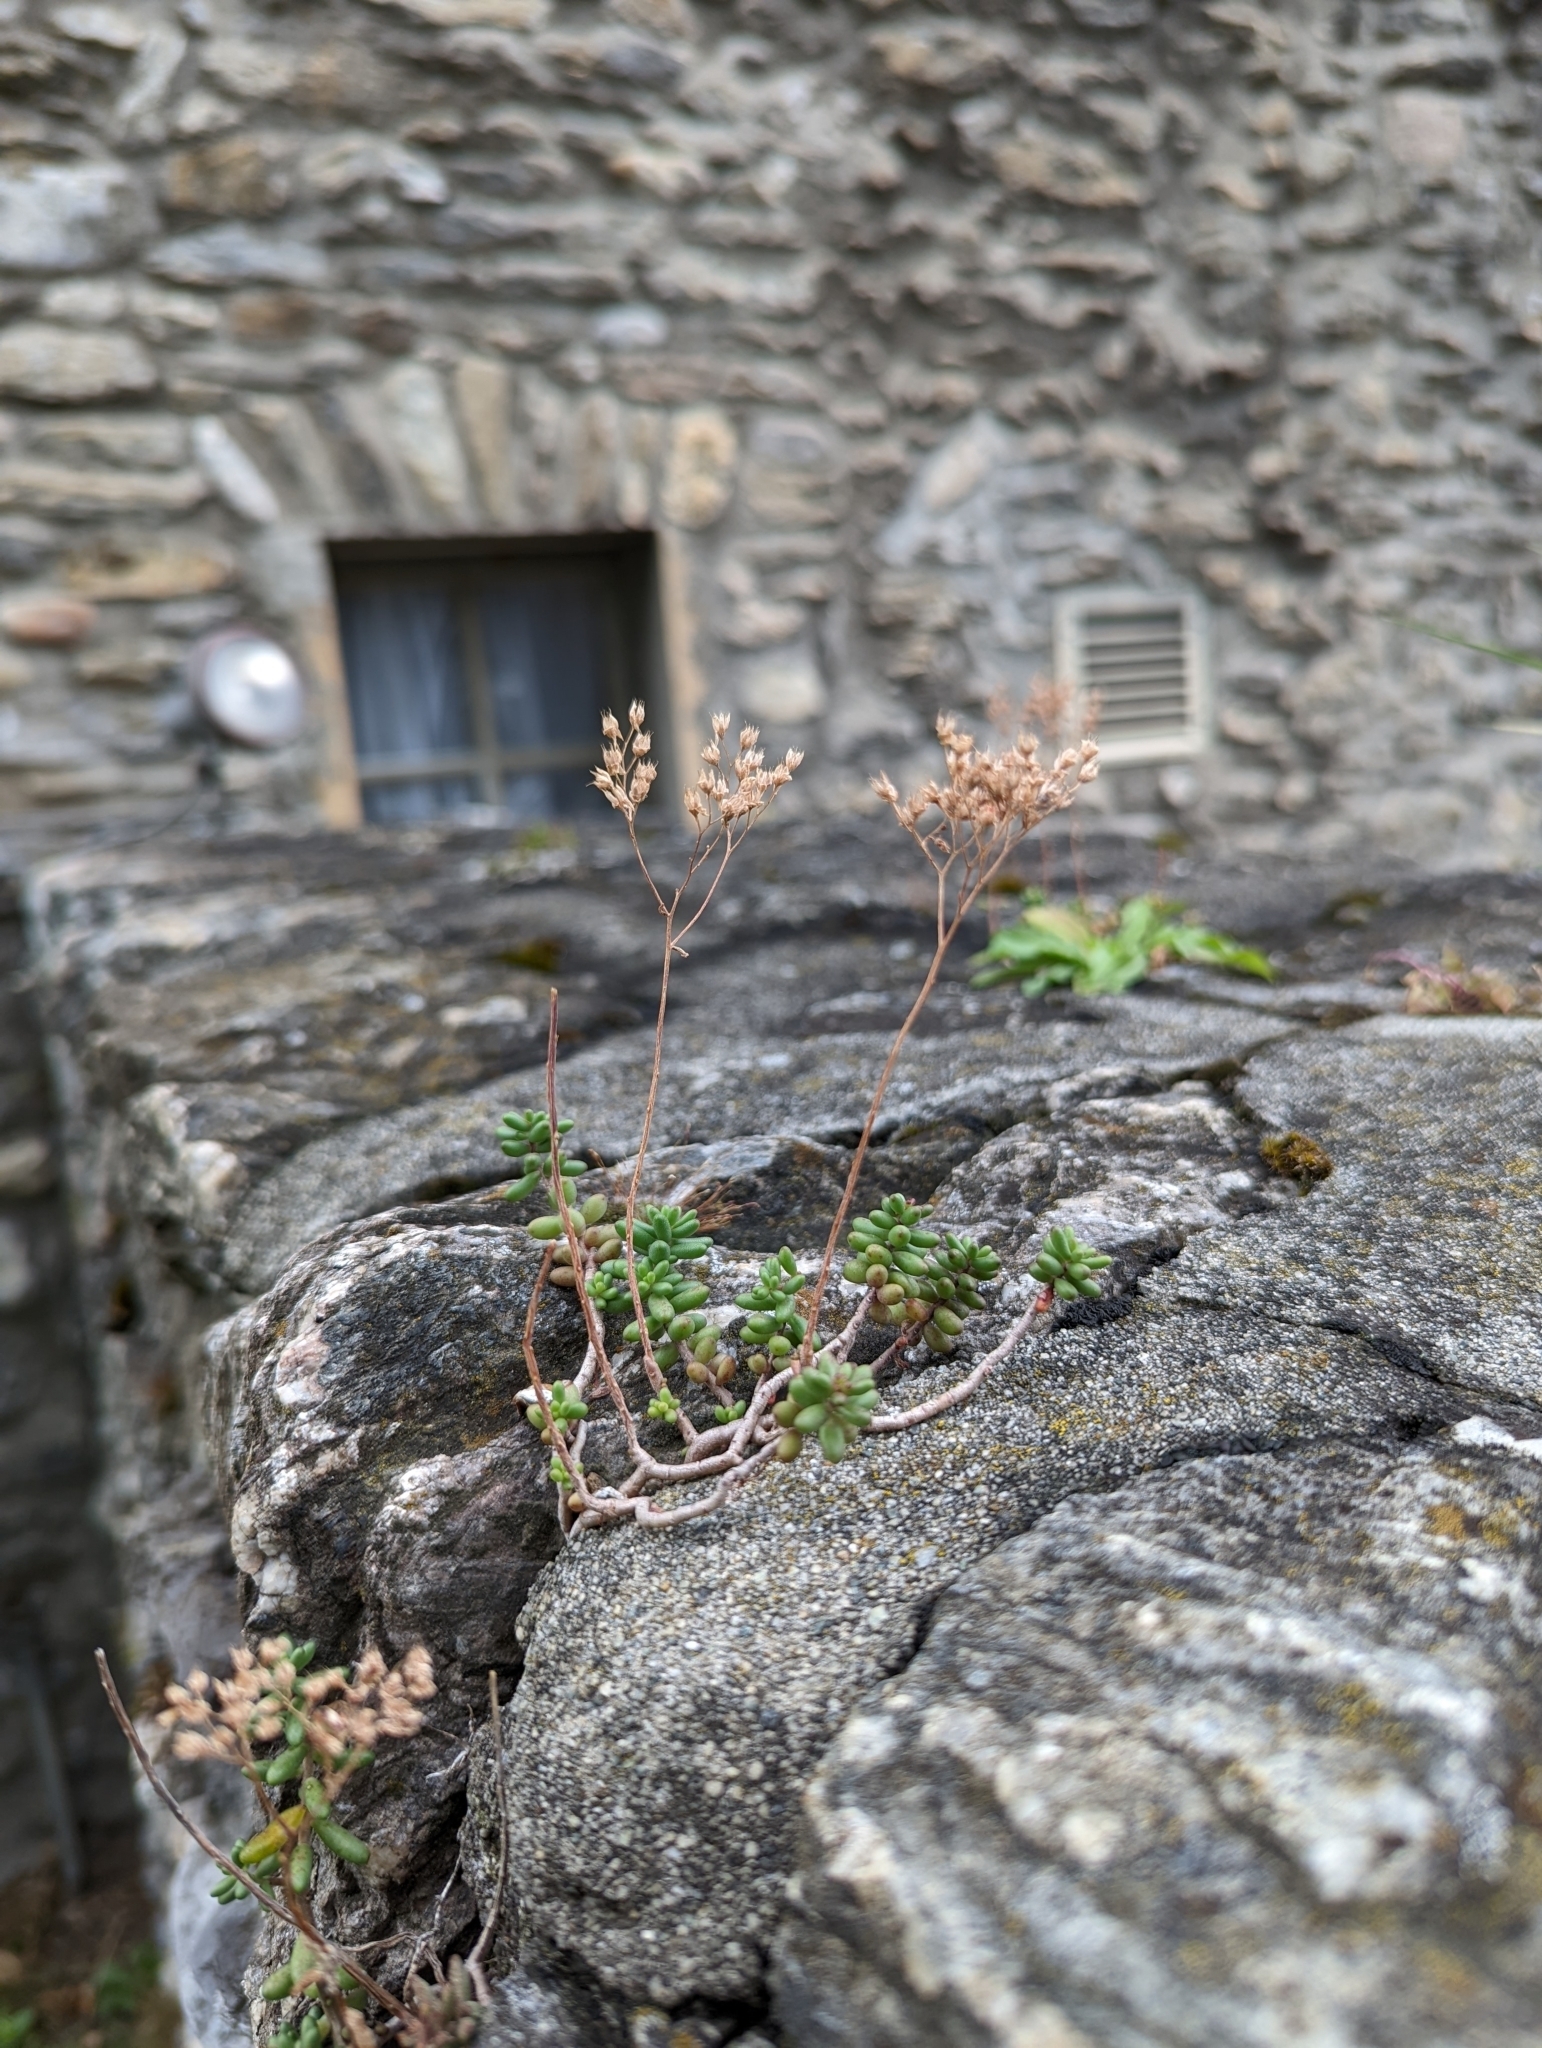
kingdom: Plantae
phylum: Tracheophyta
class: Magnoliopsida
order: Saxifragales
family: Crassulaceae
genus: Sedum
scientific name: Sedum album
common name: White stonecrop
